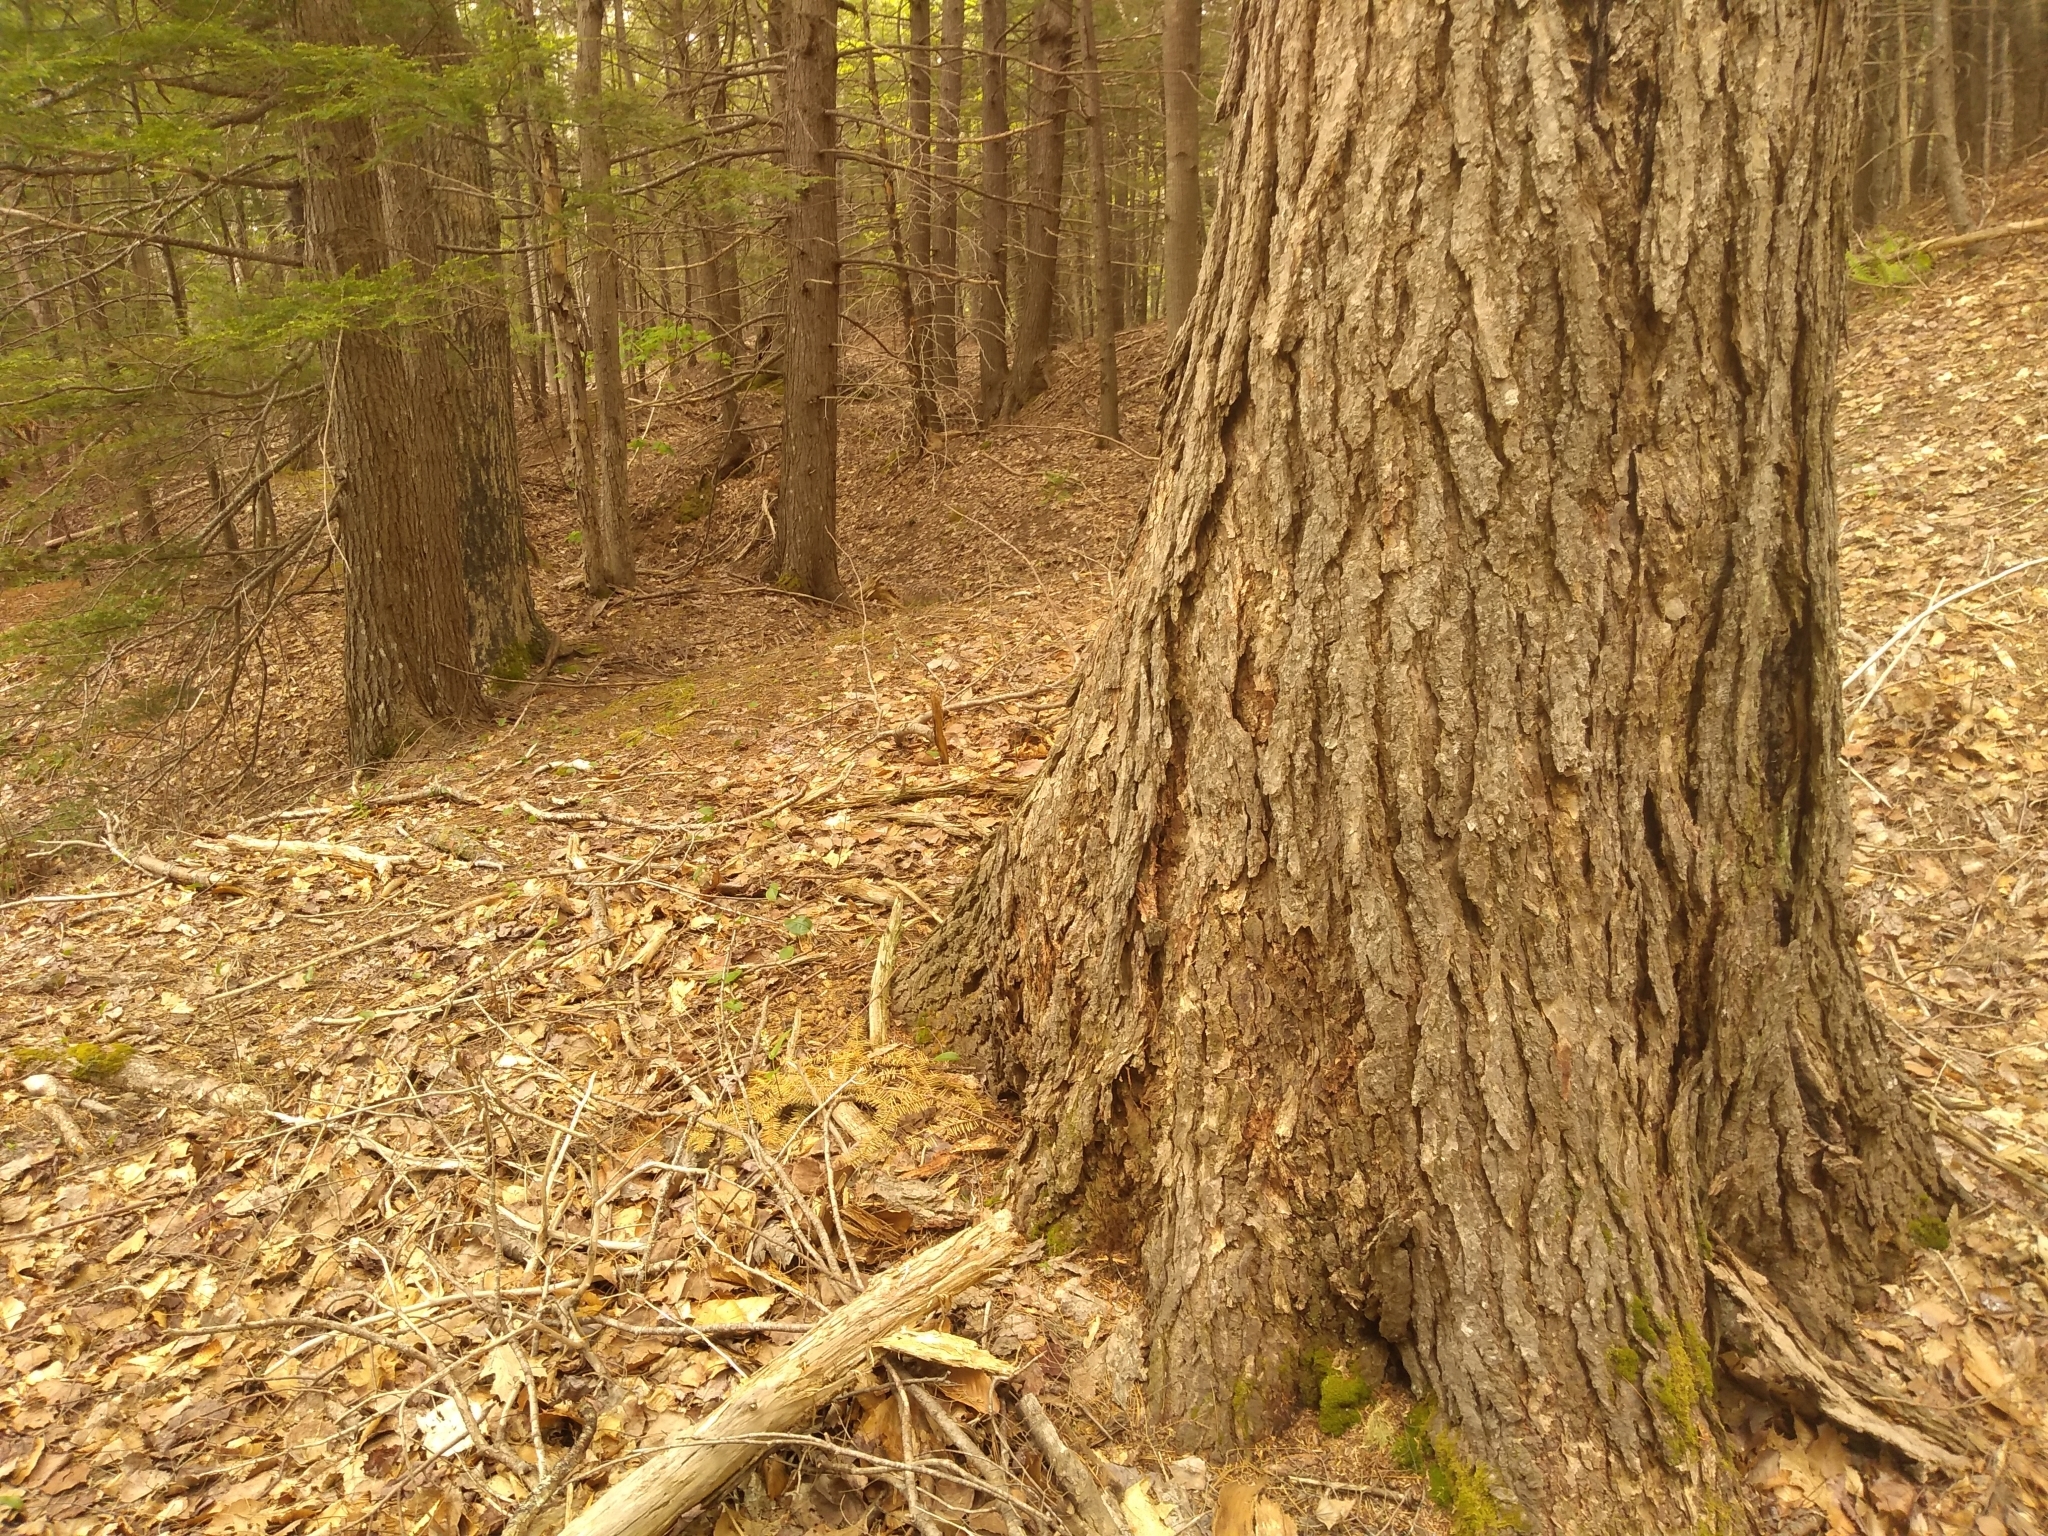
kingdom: Plantae
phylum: Tracheophyta
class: Pinopsida
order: Pinales
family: Pinaceae
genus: Tsuga
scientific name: Tsuga canadensis
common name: Eastern hemlock
